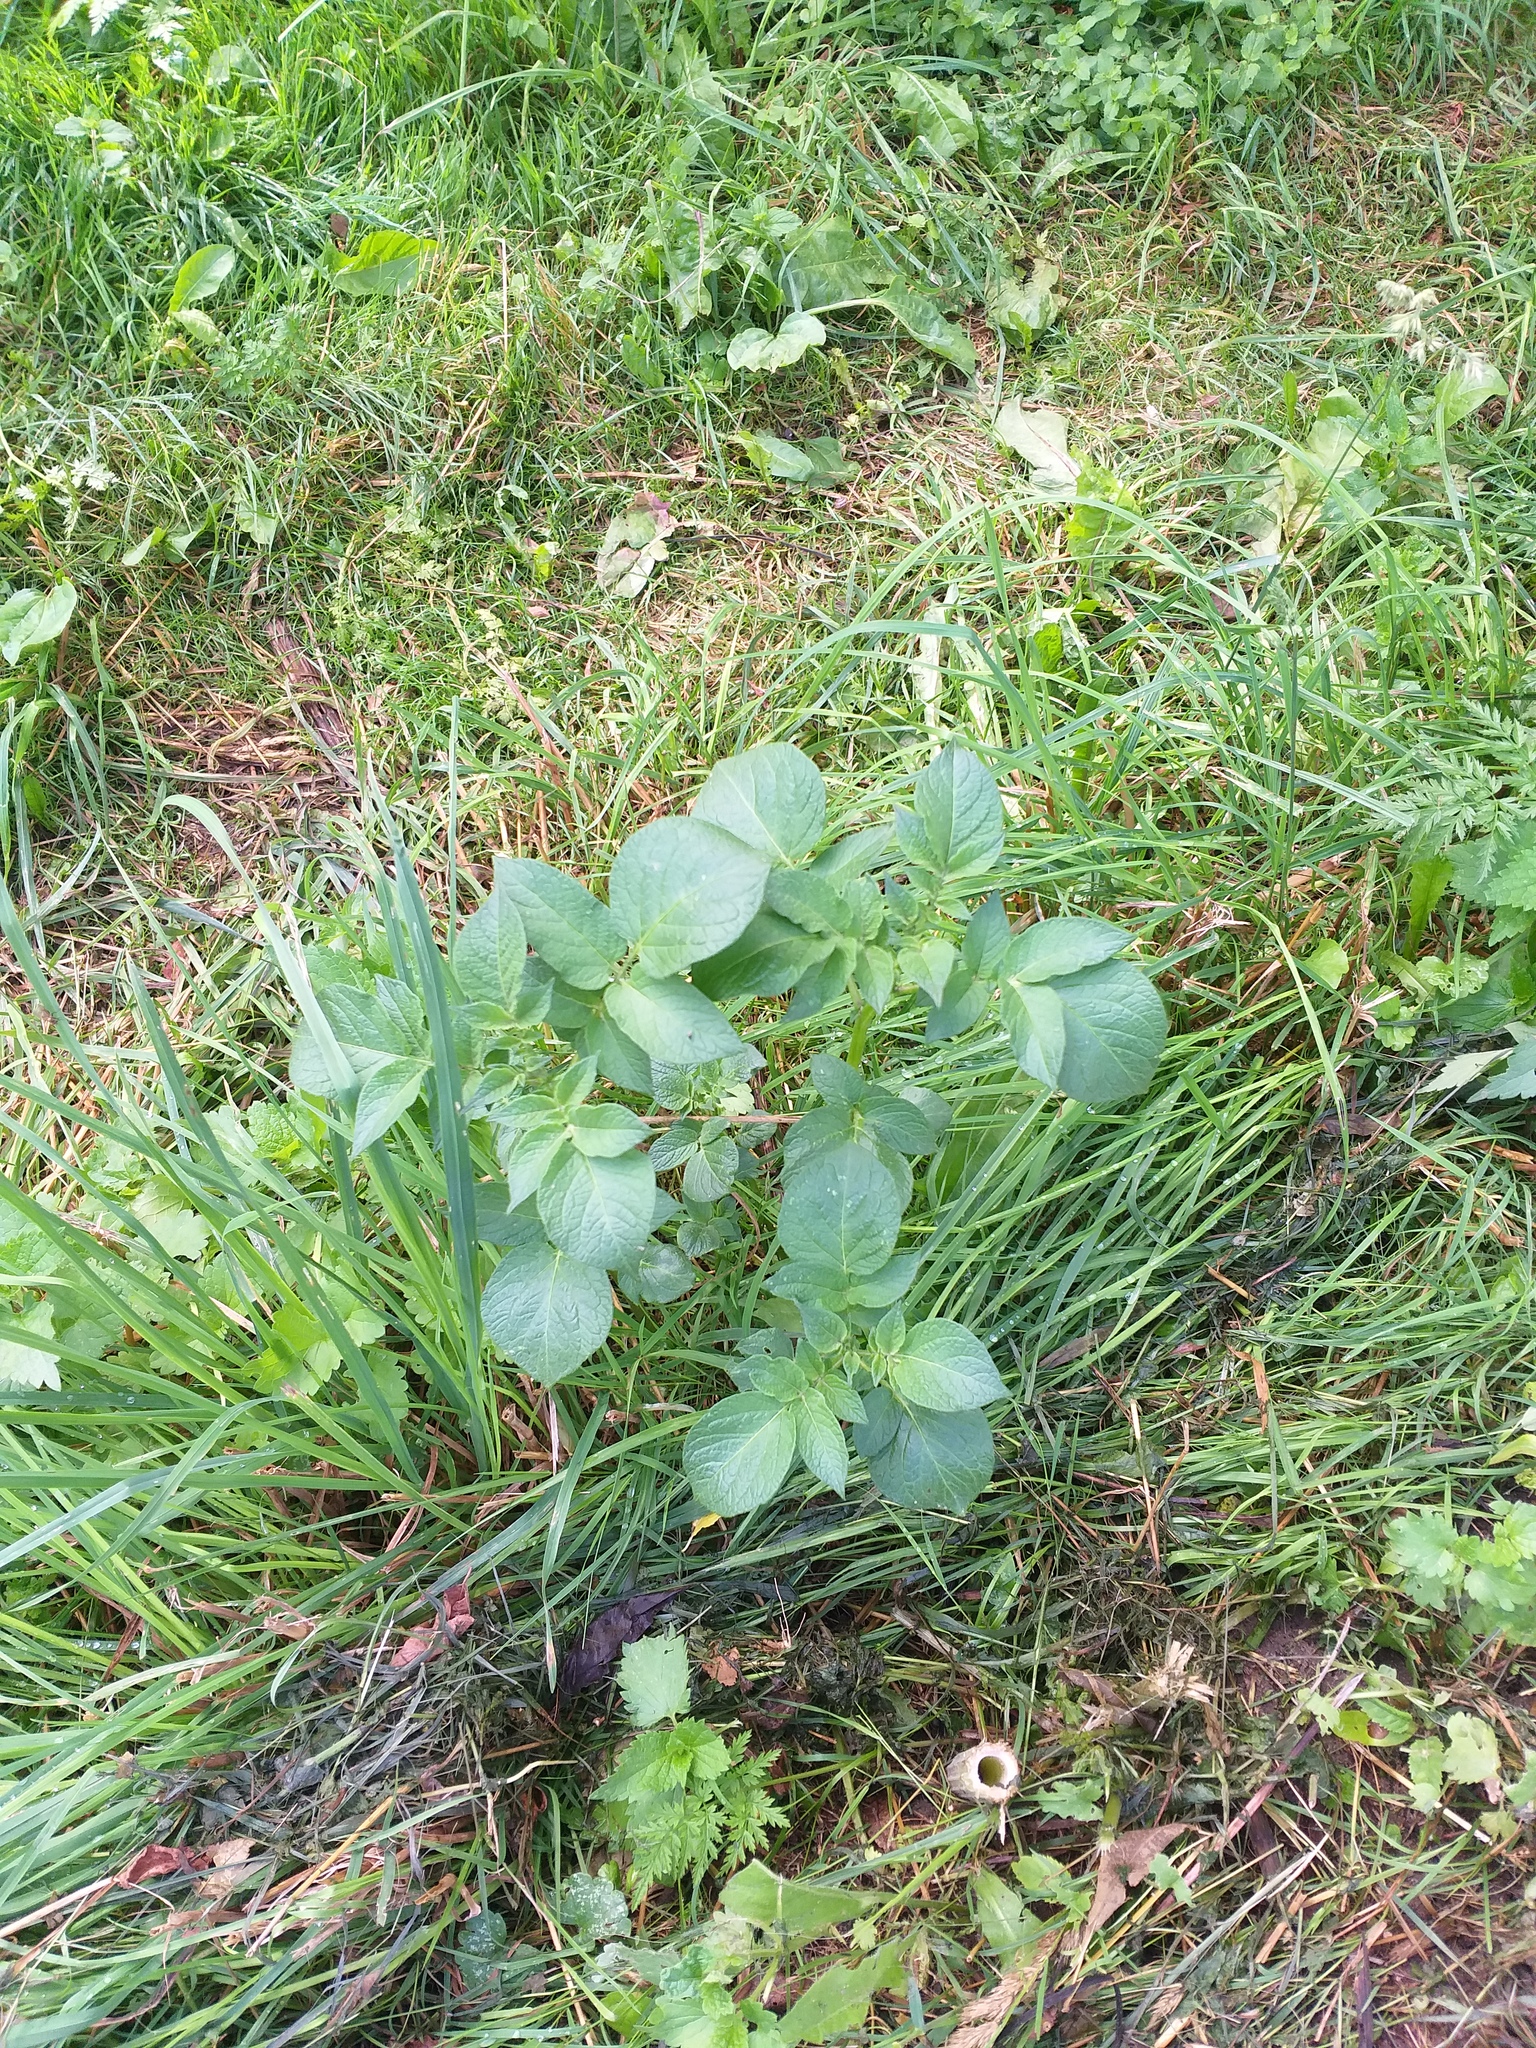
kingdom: Plantae
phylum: Tracheophyta
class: Magnoliopsida
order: Solanales
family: Solanaceae
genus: Solanum
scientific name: Solanum tuberosum
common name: Potato
